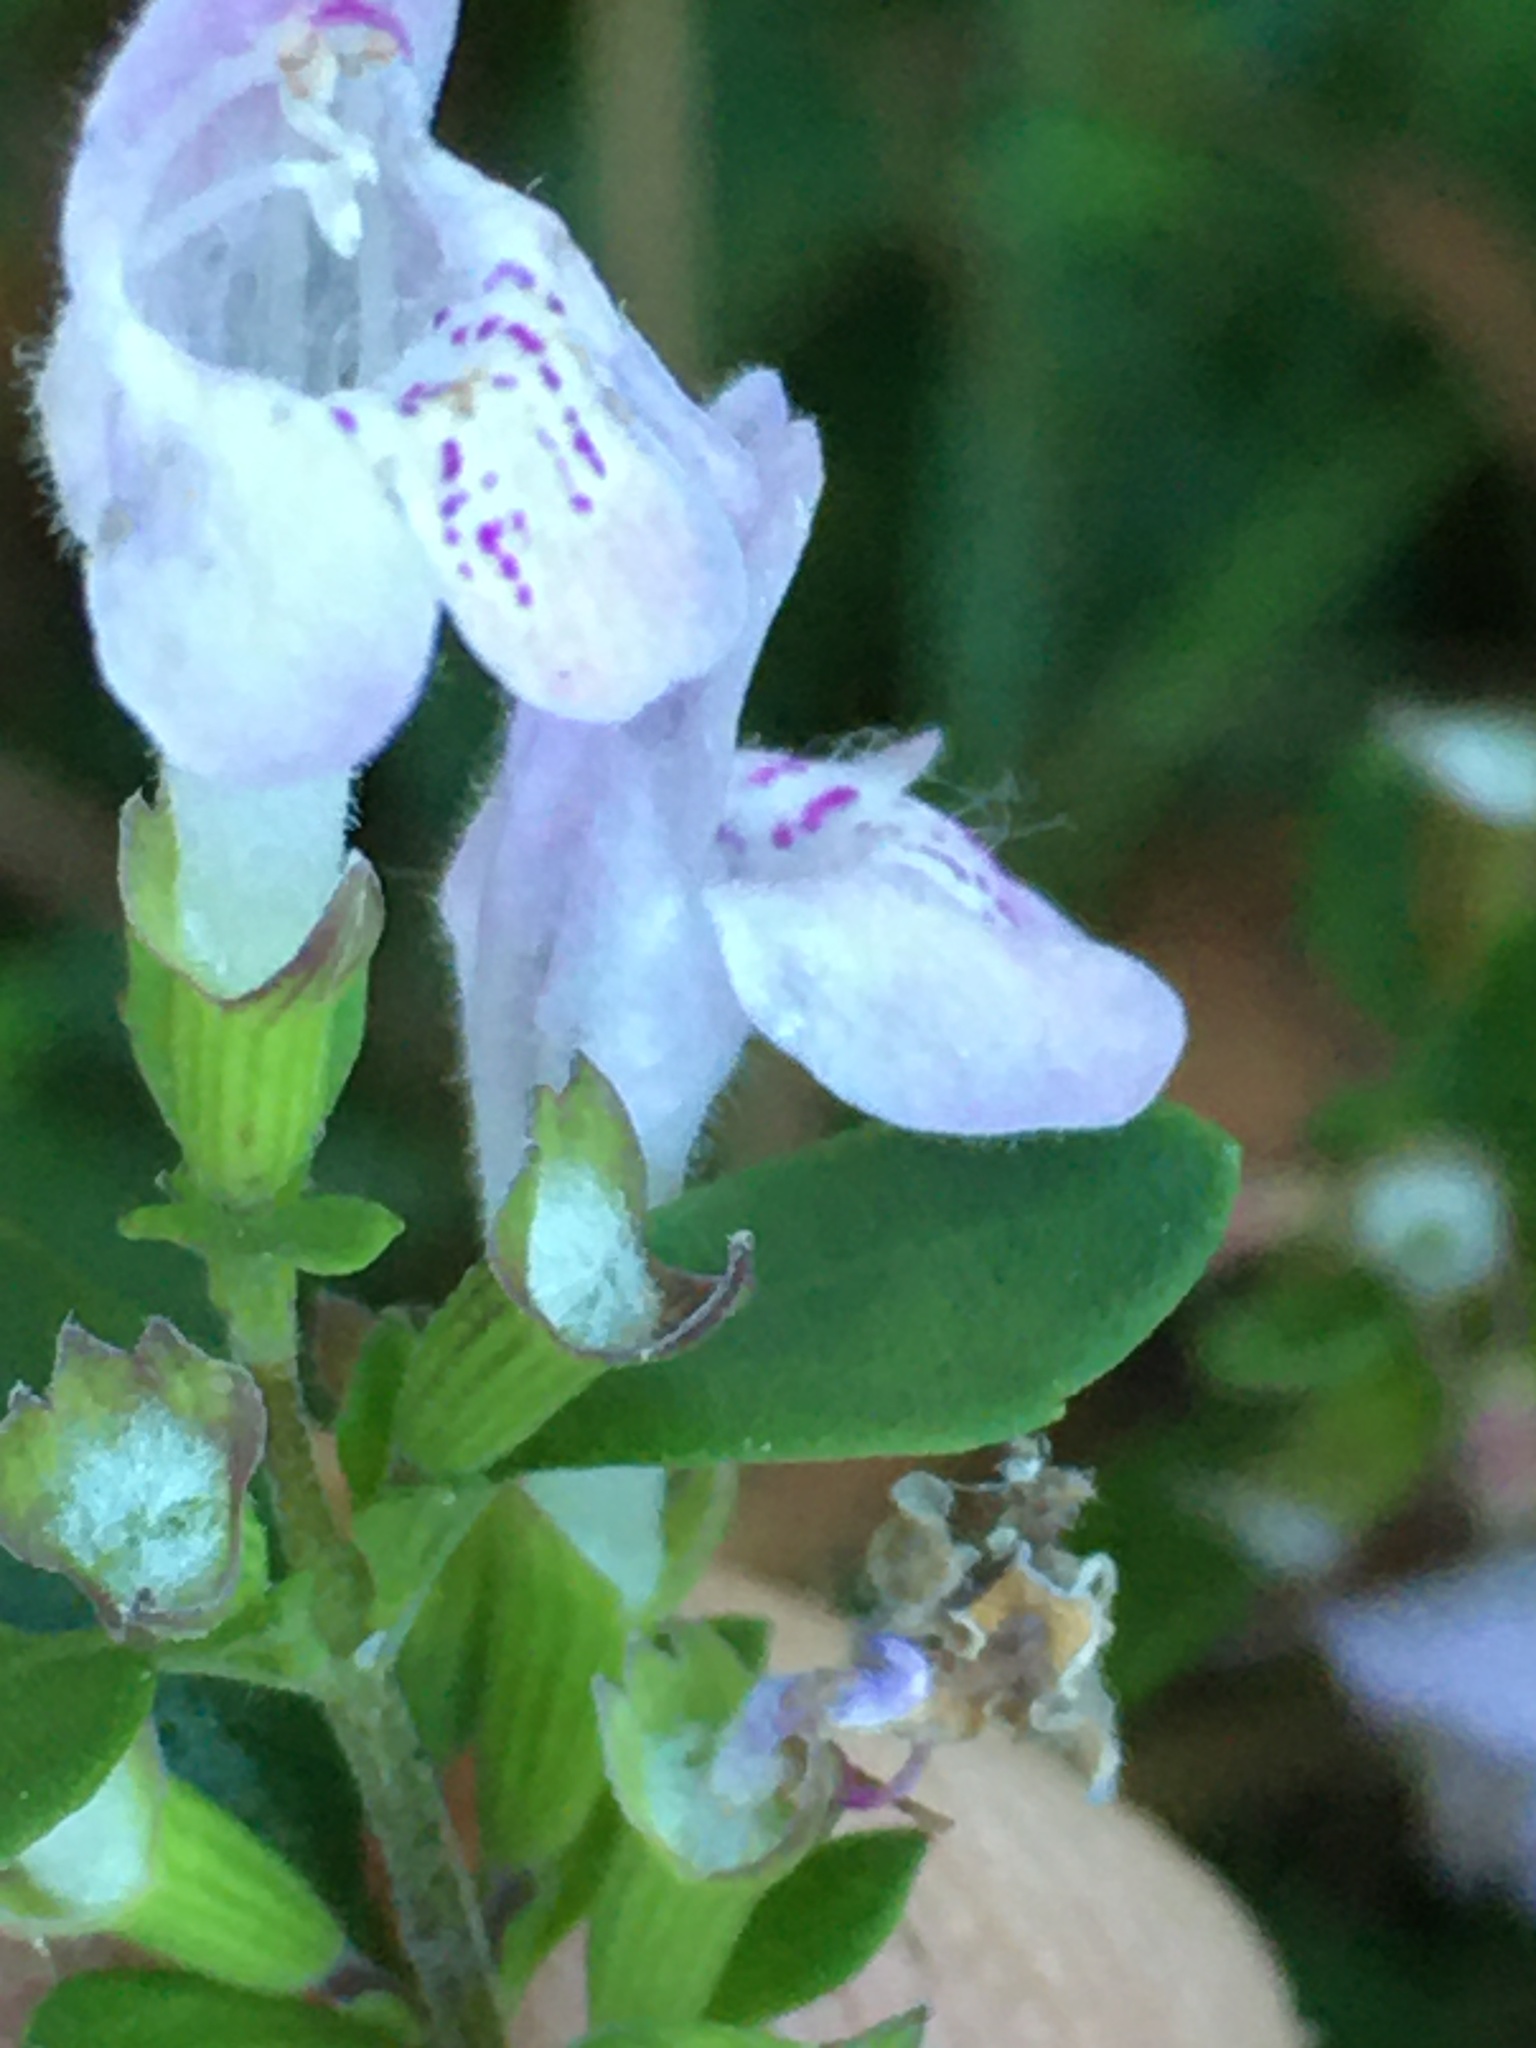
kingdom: Plantae
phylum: Tracheophyta
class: Magnoliopsida
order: Lamiales
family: Lamiaceae
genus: Clinopodium
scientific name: Clinopodium carolinianum
